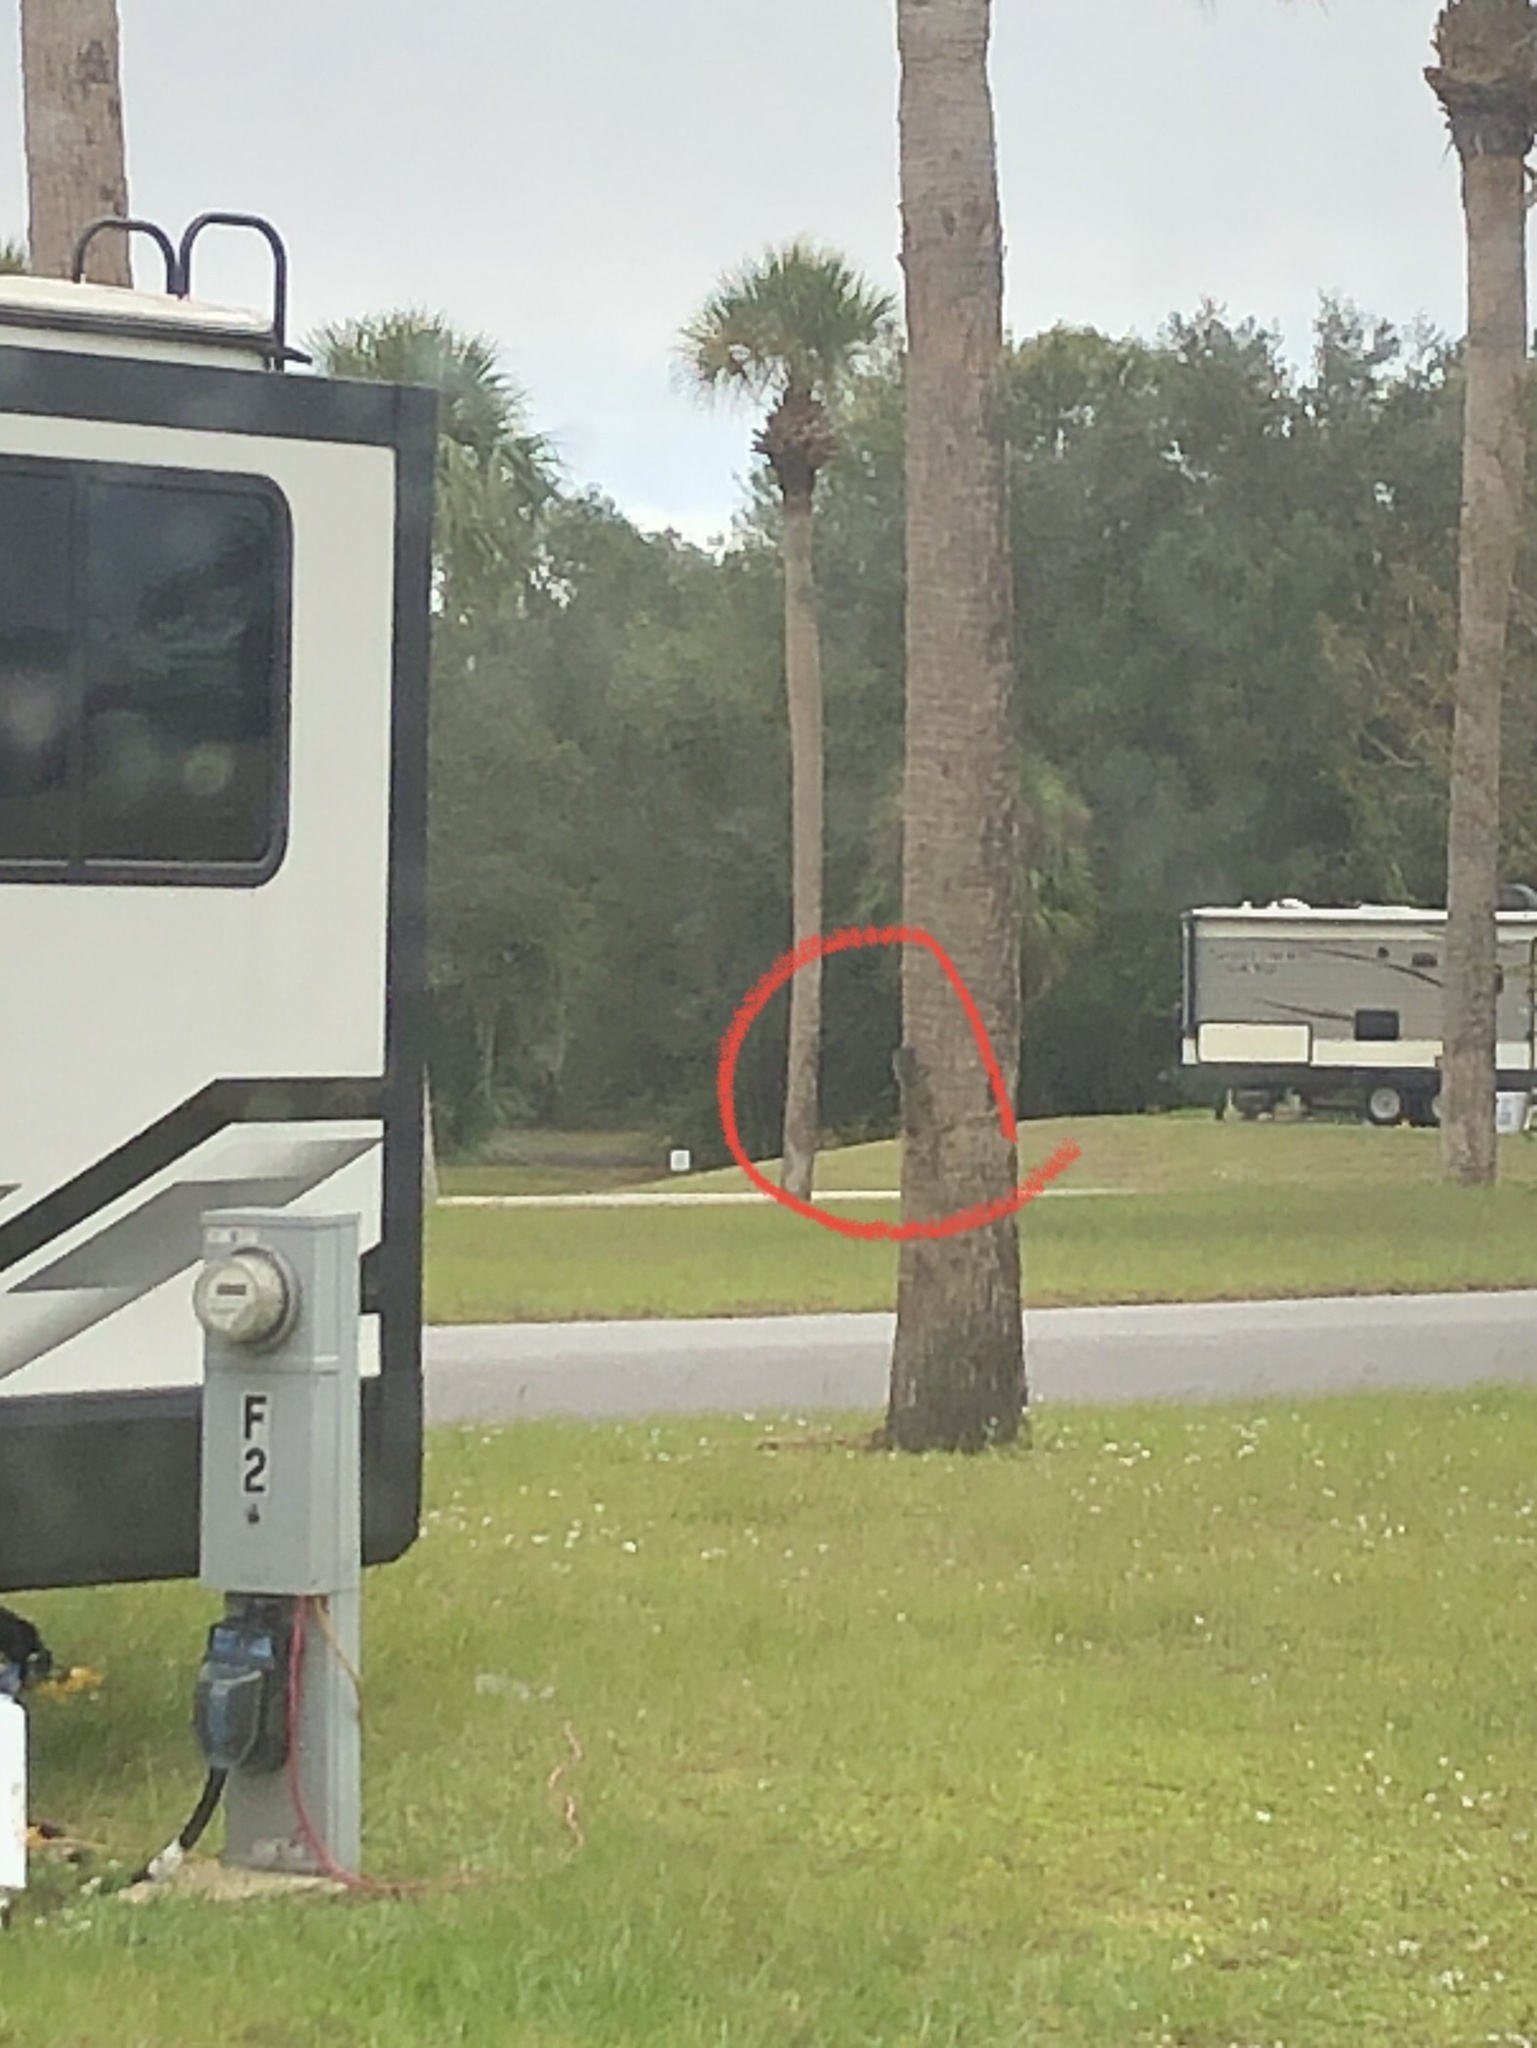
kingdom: Animalia
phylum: Chordata
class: Mammalia
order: Rodentia
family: Sciuridae
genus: Sciurus
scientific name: Sciurus carolinensis
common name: Eastern gray squirrel
